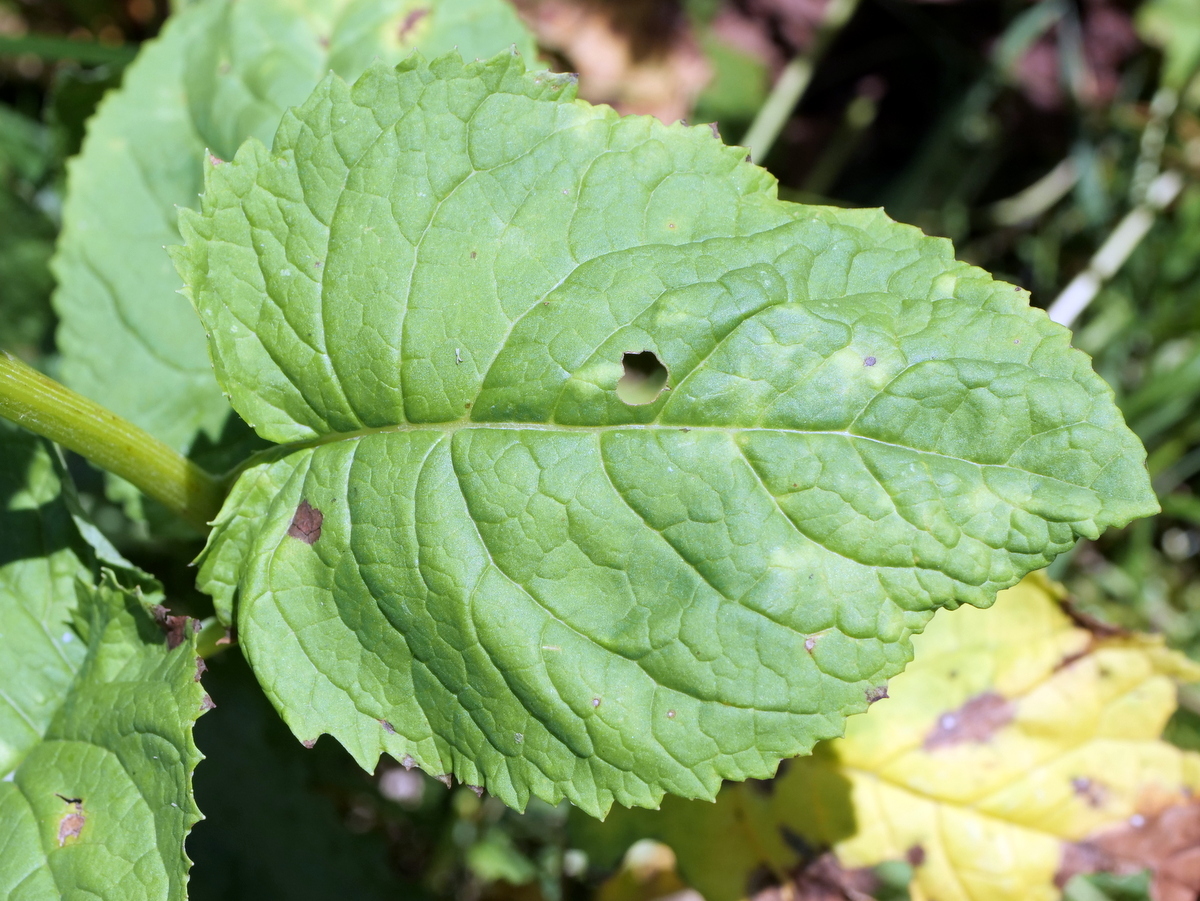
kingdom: Plantae
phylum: Tracheophyta
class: Magnoliopsida
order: Asterales
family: Asteraceae
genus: Jacobaea
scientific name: Jacobaea alpina
